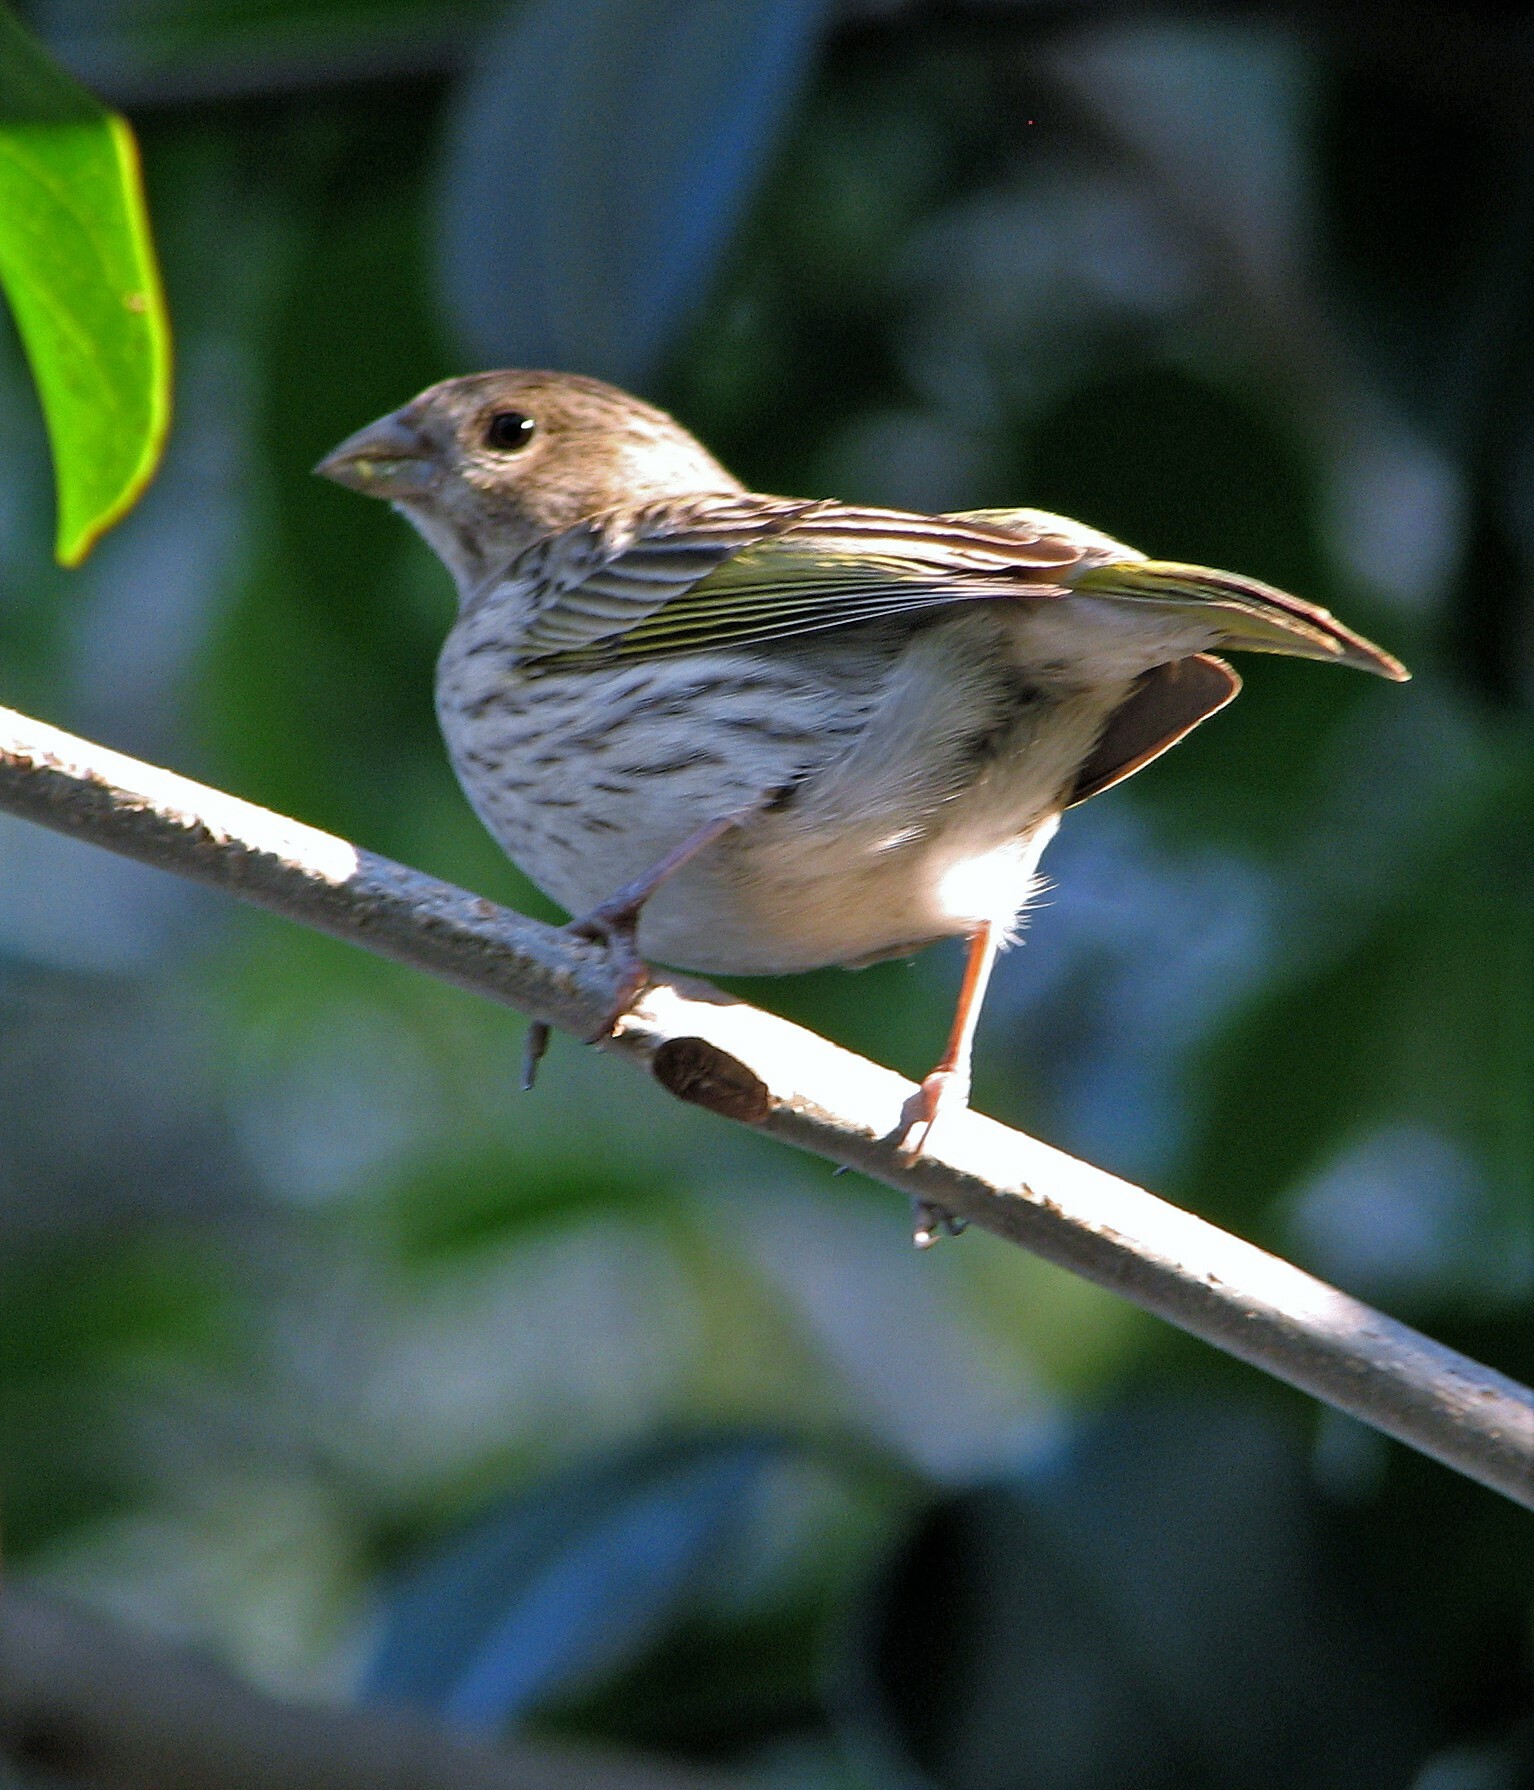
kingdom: Animalia
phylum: Chordata
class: Aves
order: Passeriformes
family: Thraupidae
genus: Sicalis
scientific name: Sicalis flaveola
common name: Saffron finch
